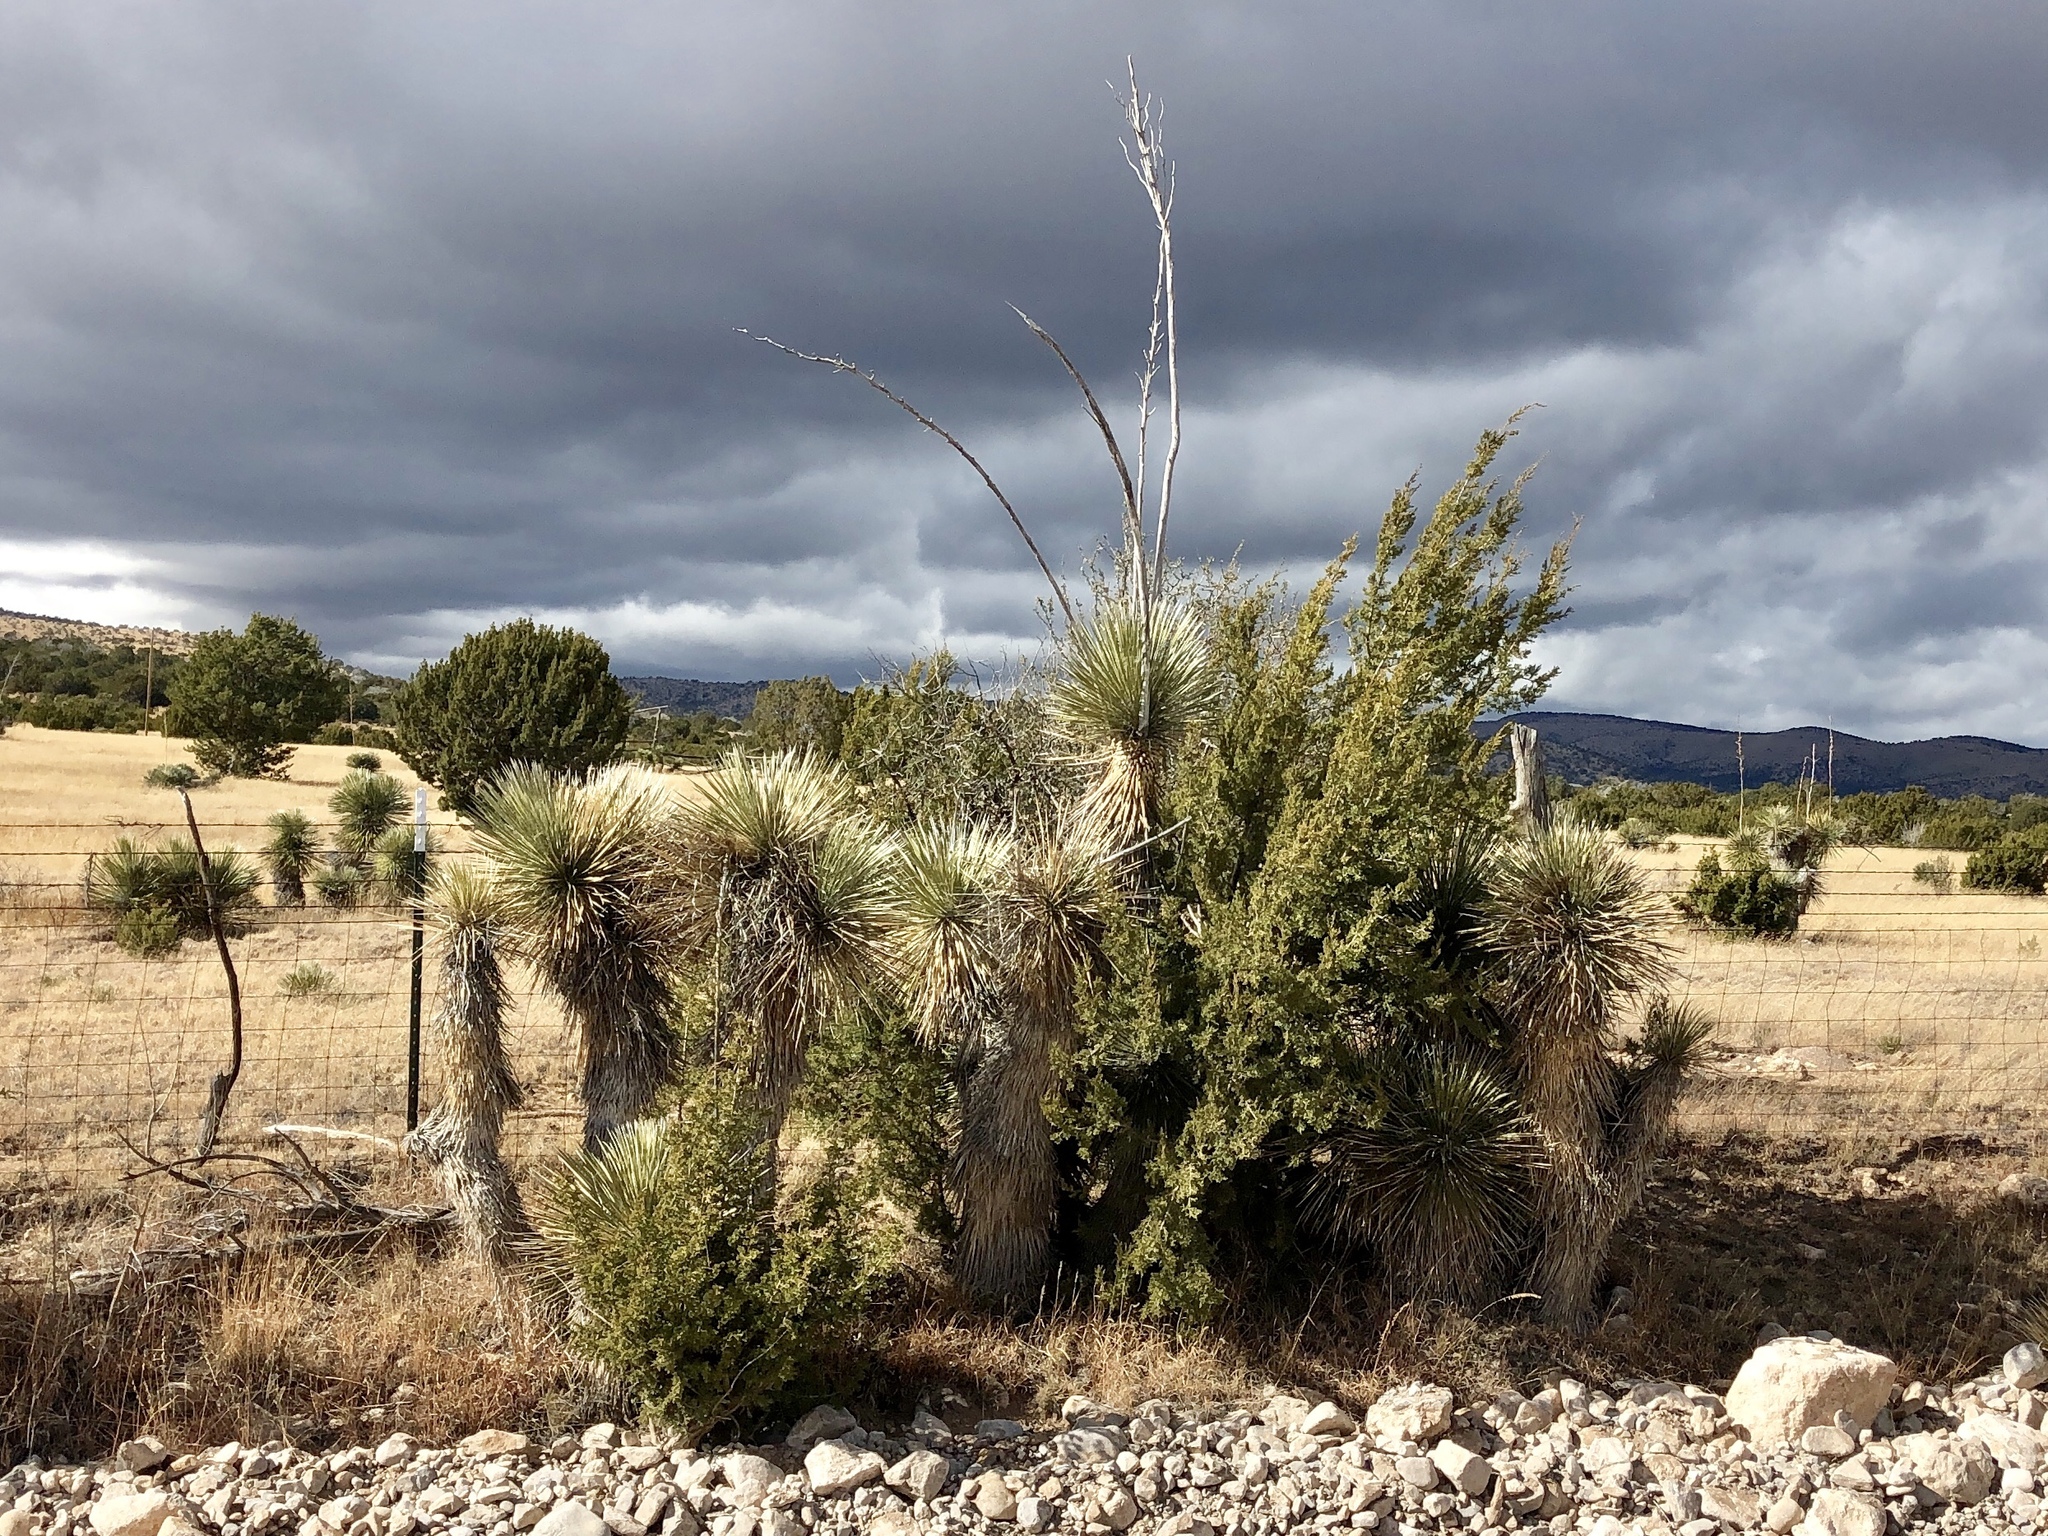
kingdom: Plantae
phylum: Tracheophyta
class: Liliopsida
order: Asparagales
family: Asparagaceae
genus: Yucca
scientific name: Yucca elata
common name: Palmella
